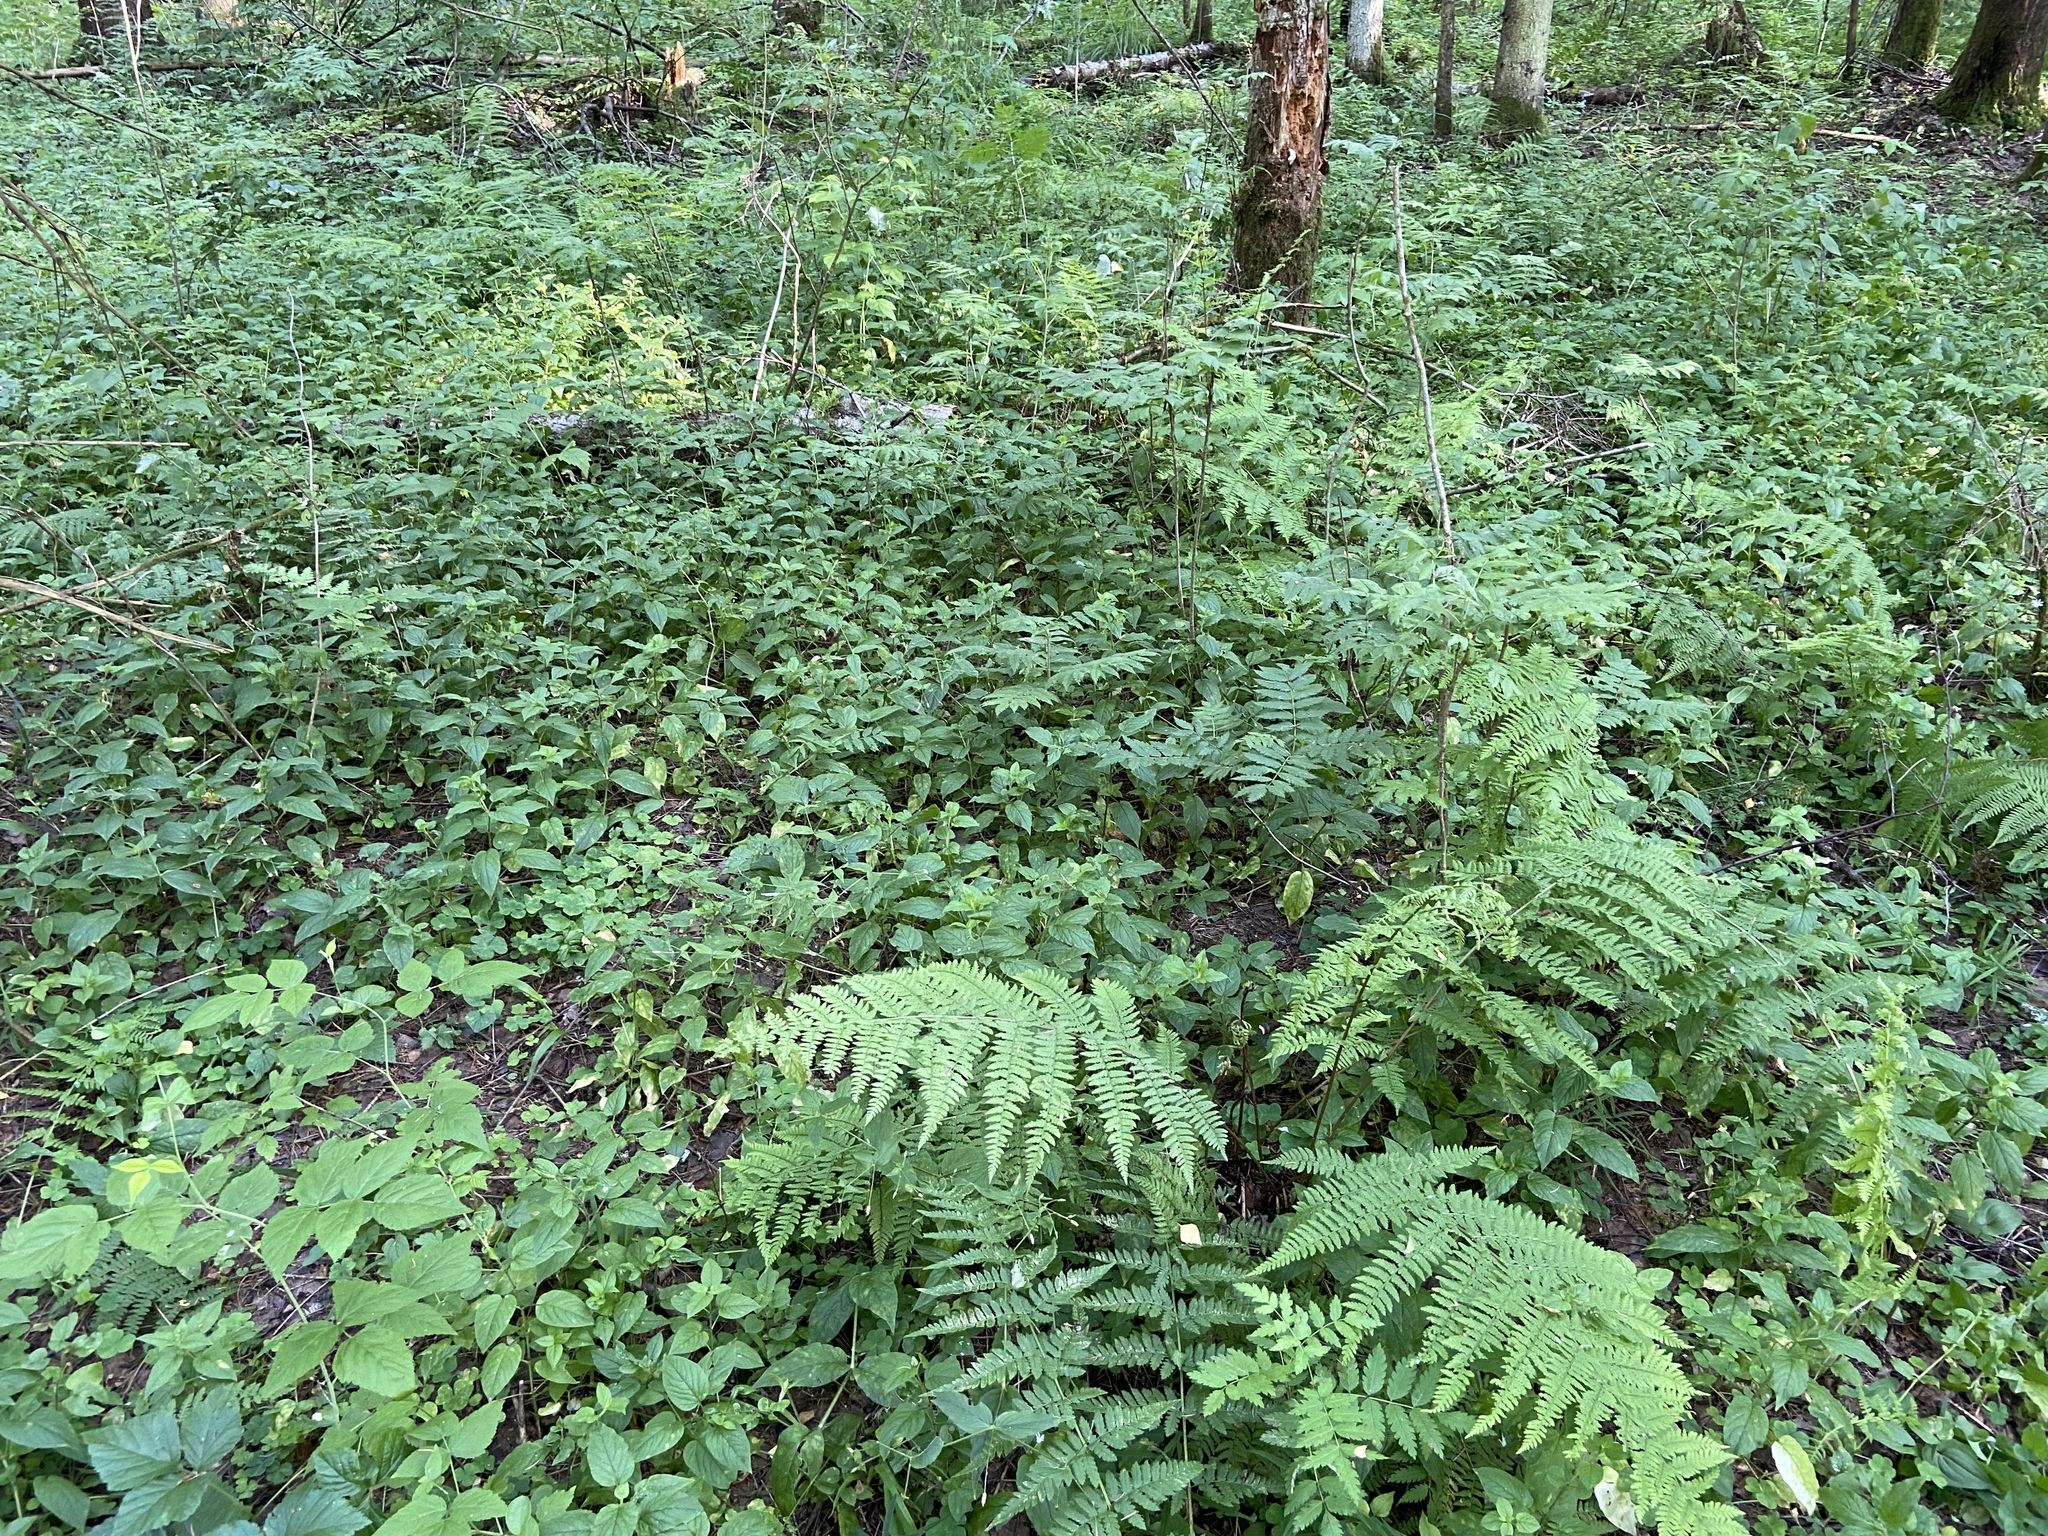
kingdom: Plantae
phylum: Tracheophyta
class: Polypodiopsida
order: Polypodiales
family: Athyriaceae
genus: Athyrium
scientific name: Athyrium filix-femina
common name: Lady fern
